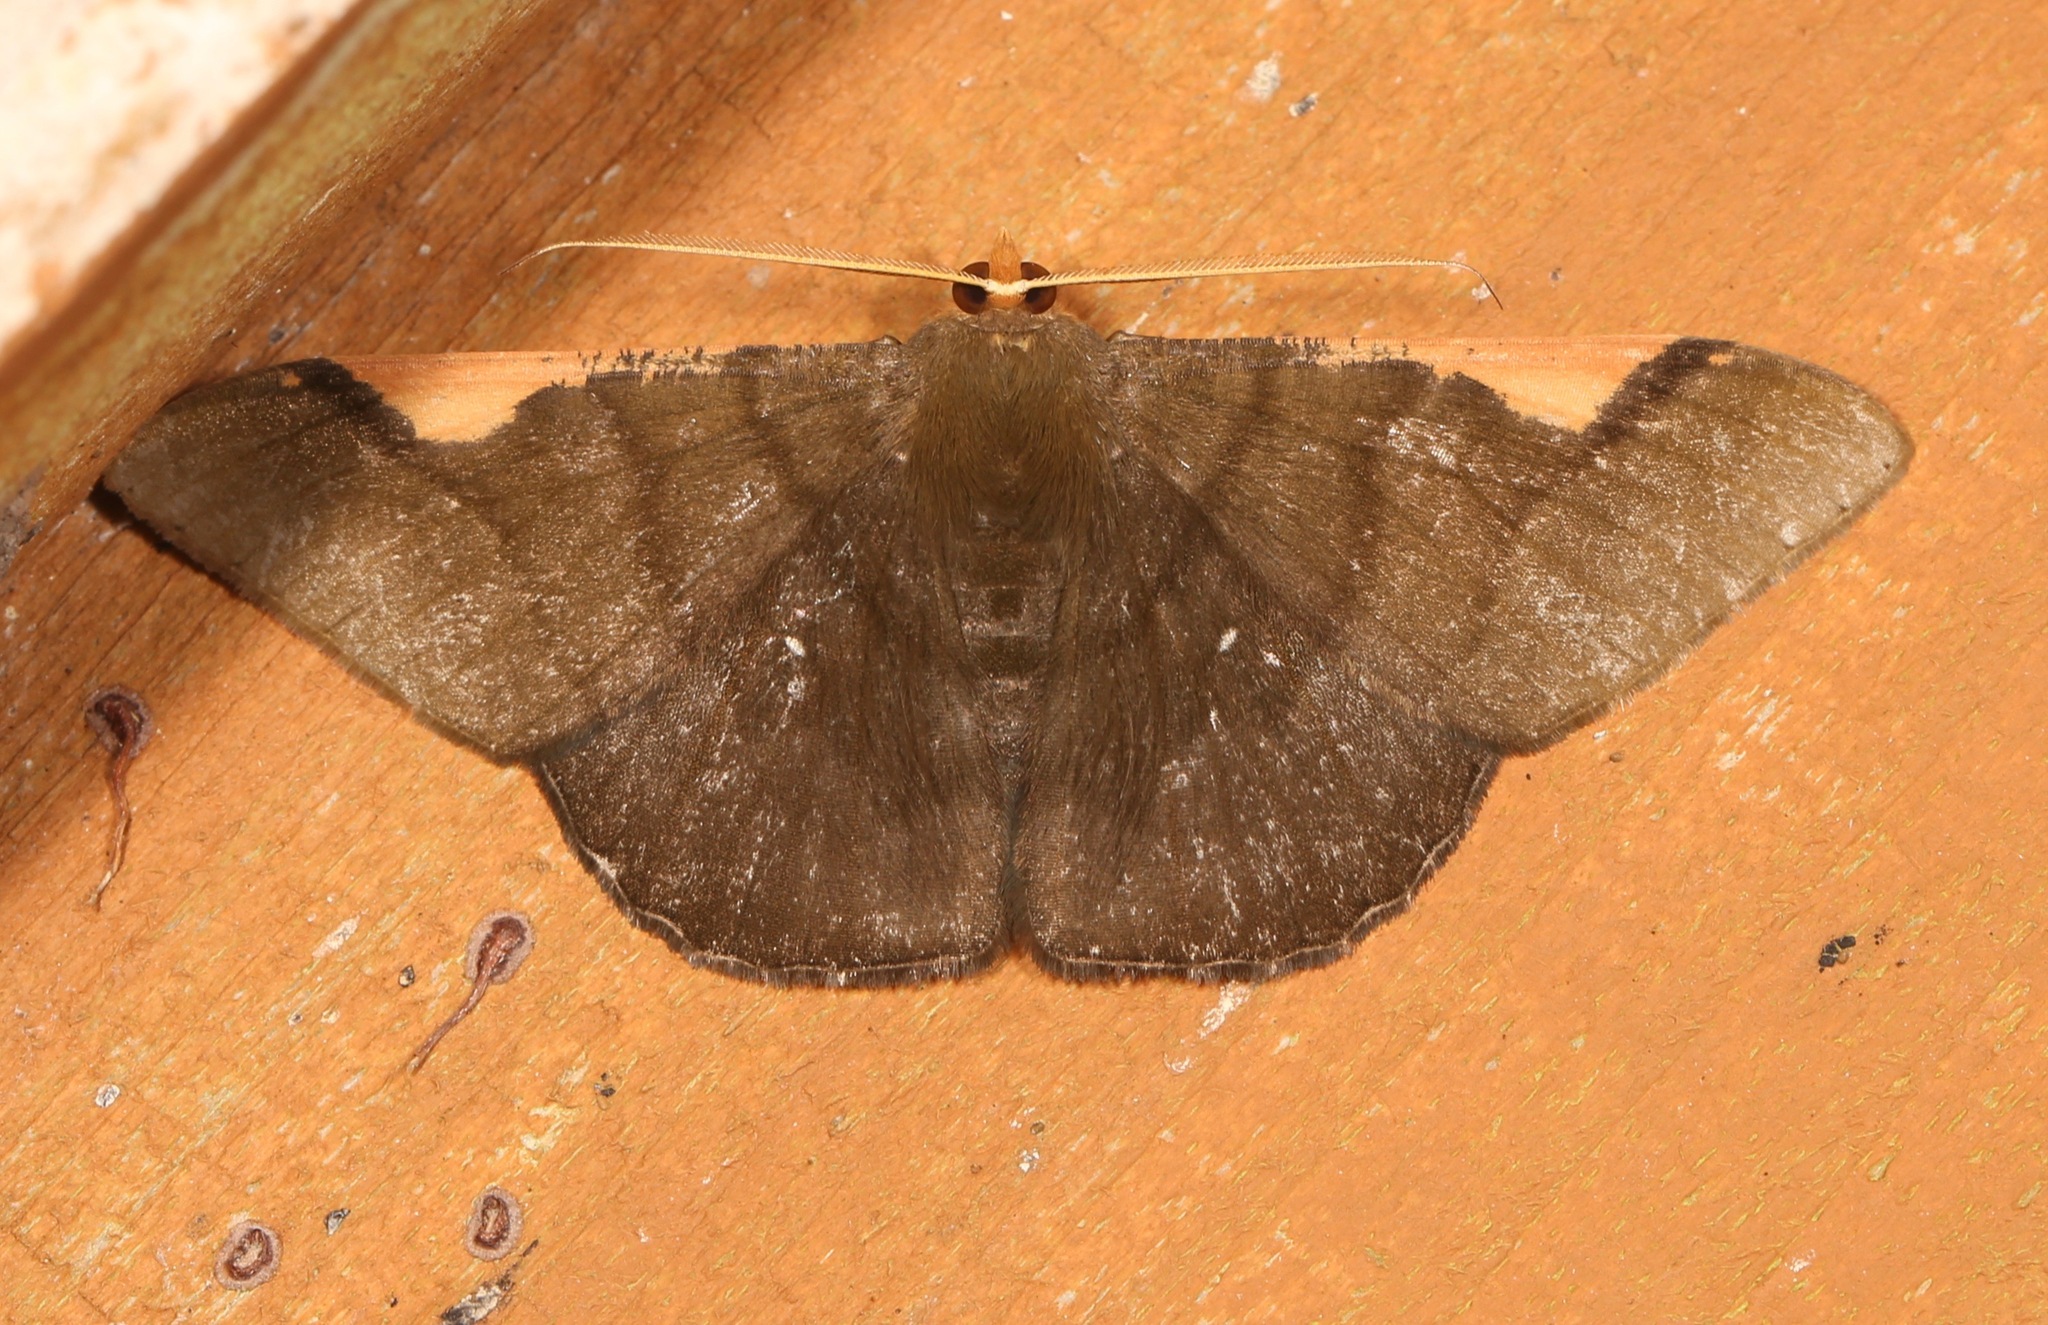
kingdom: Animalia
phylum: Arthropoda
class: Insecta
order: Lepidoptera
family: Geometridae
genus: Sphacelodes
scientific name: Sphacelodes vulneraria
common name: Looper moth
